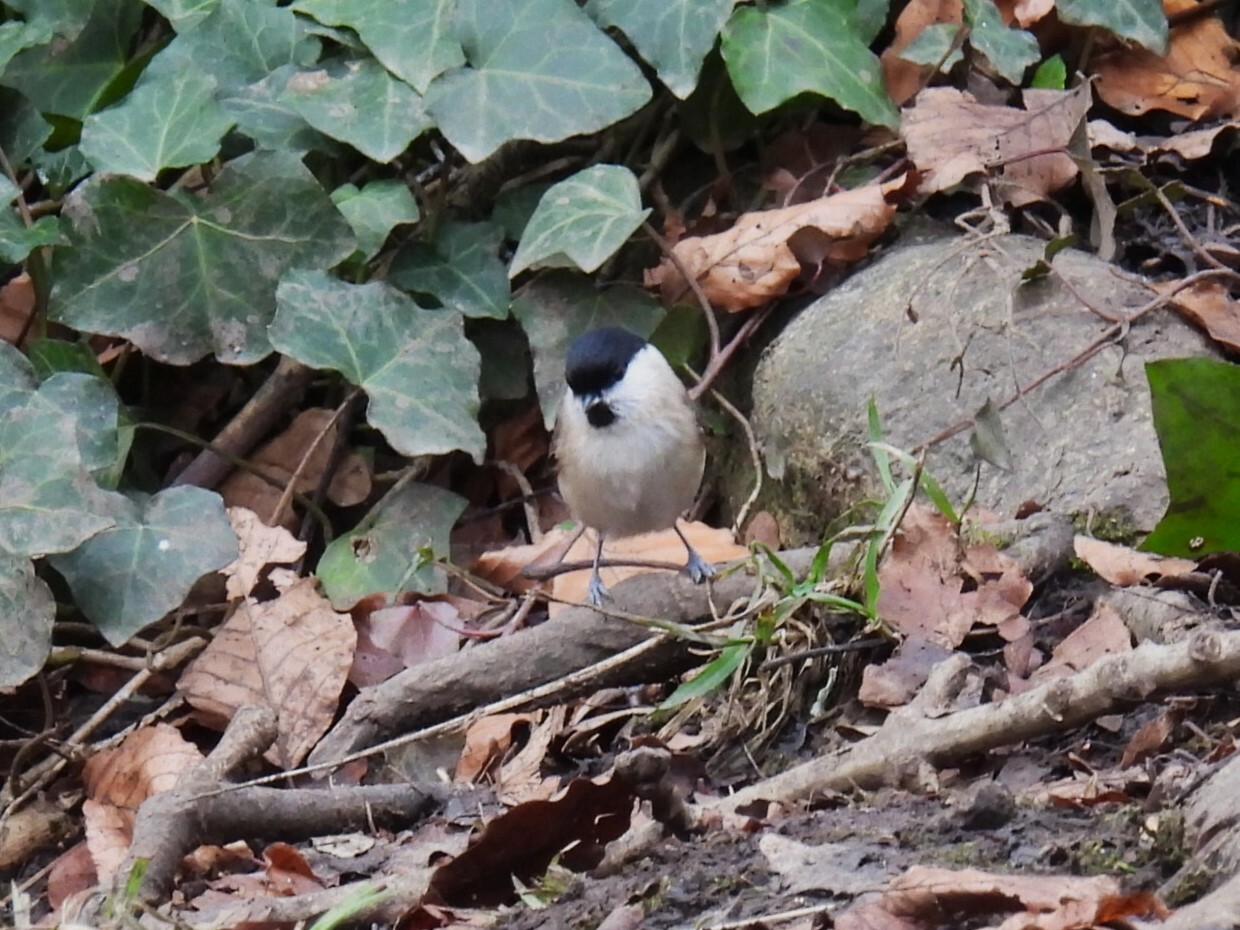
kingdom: Animalia
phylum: Chordata
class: Aves
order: Passeriformes
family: Paridae
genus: Poecile
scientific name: Poecile palustris
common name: Marsh tit
